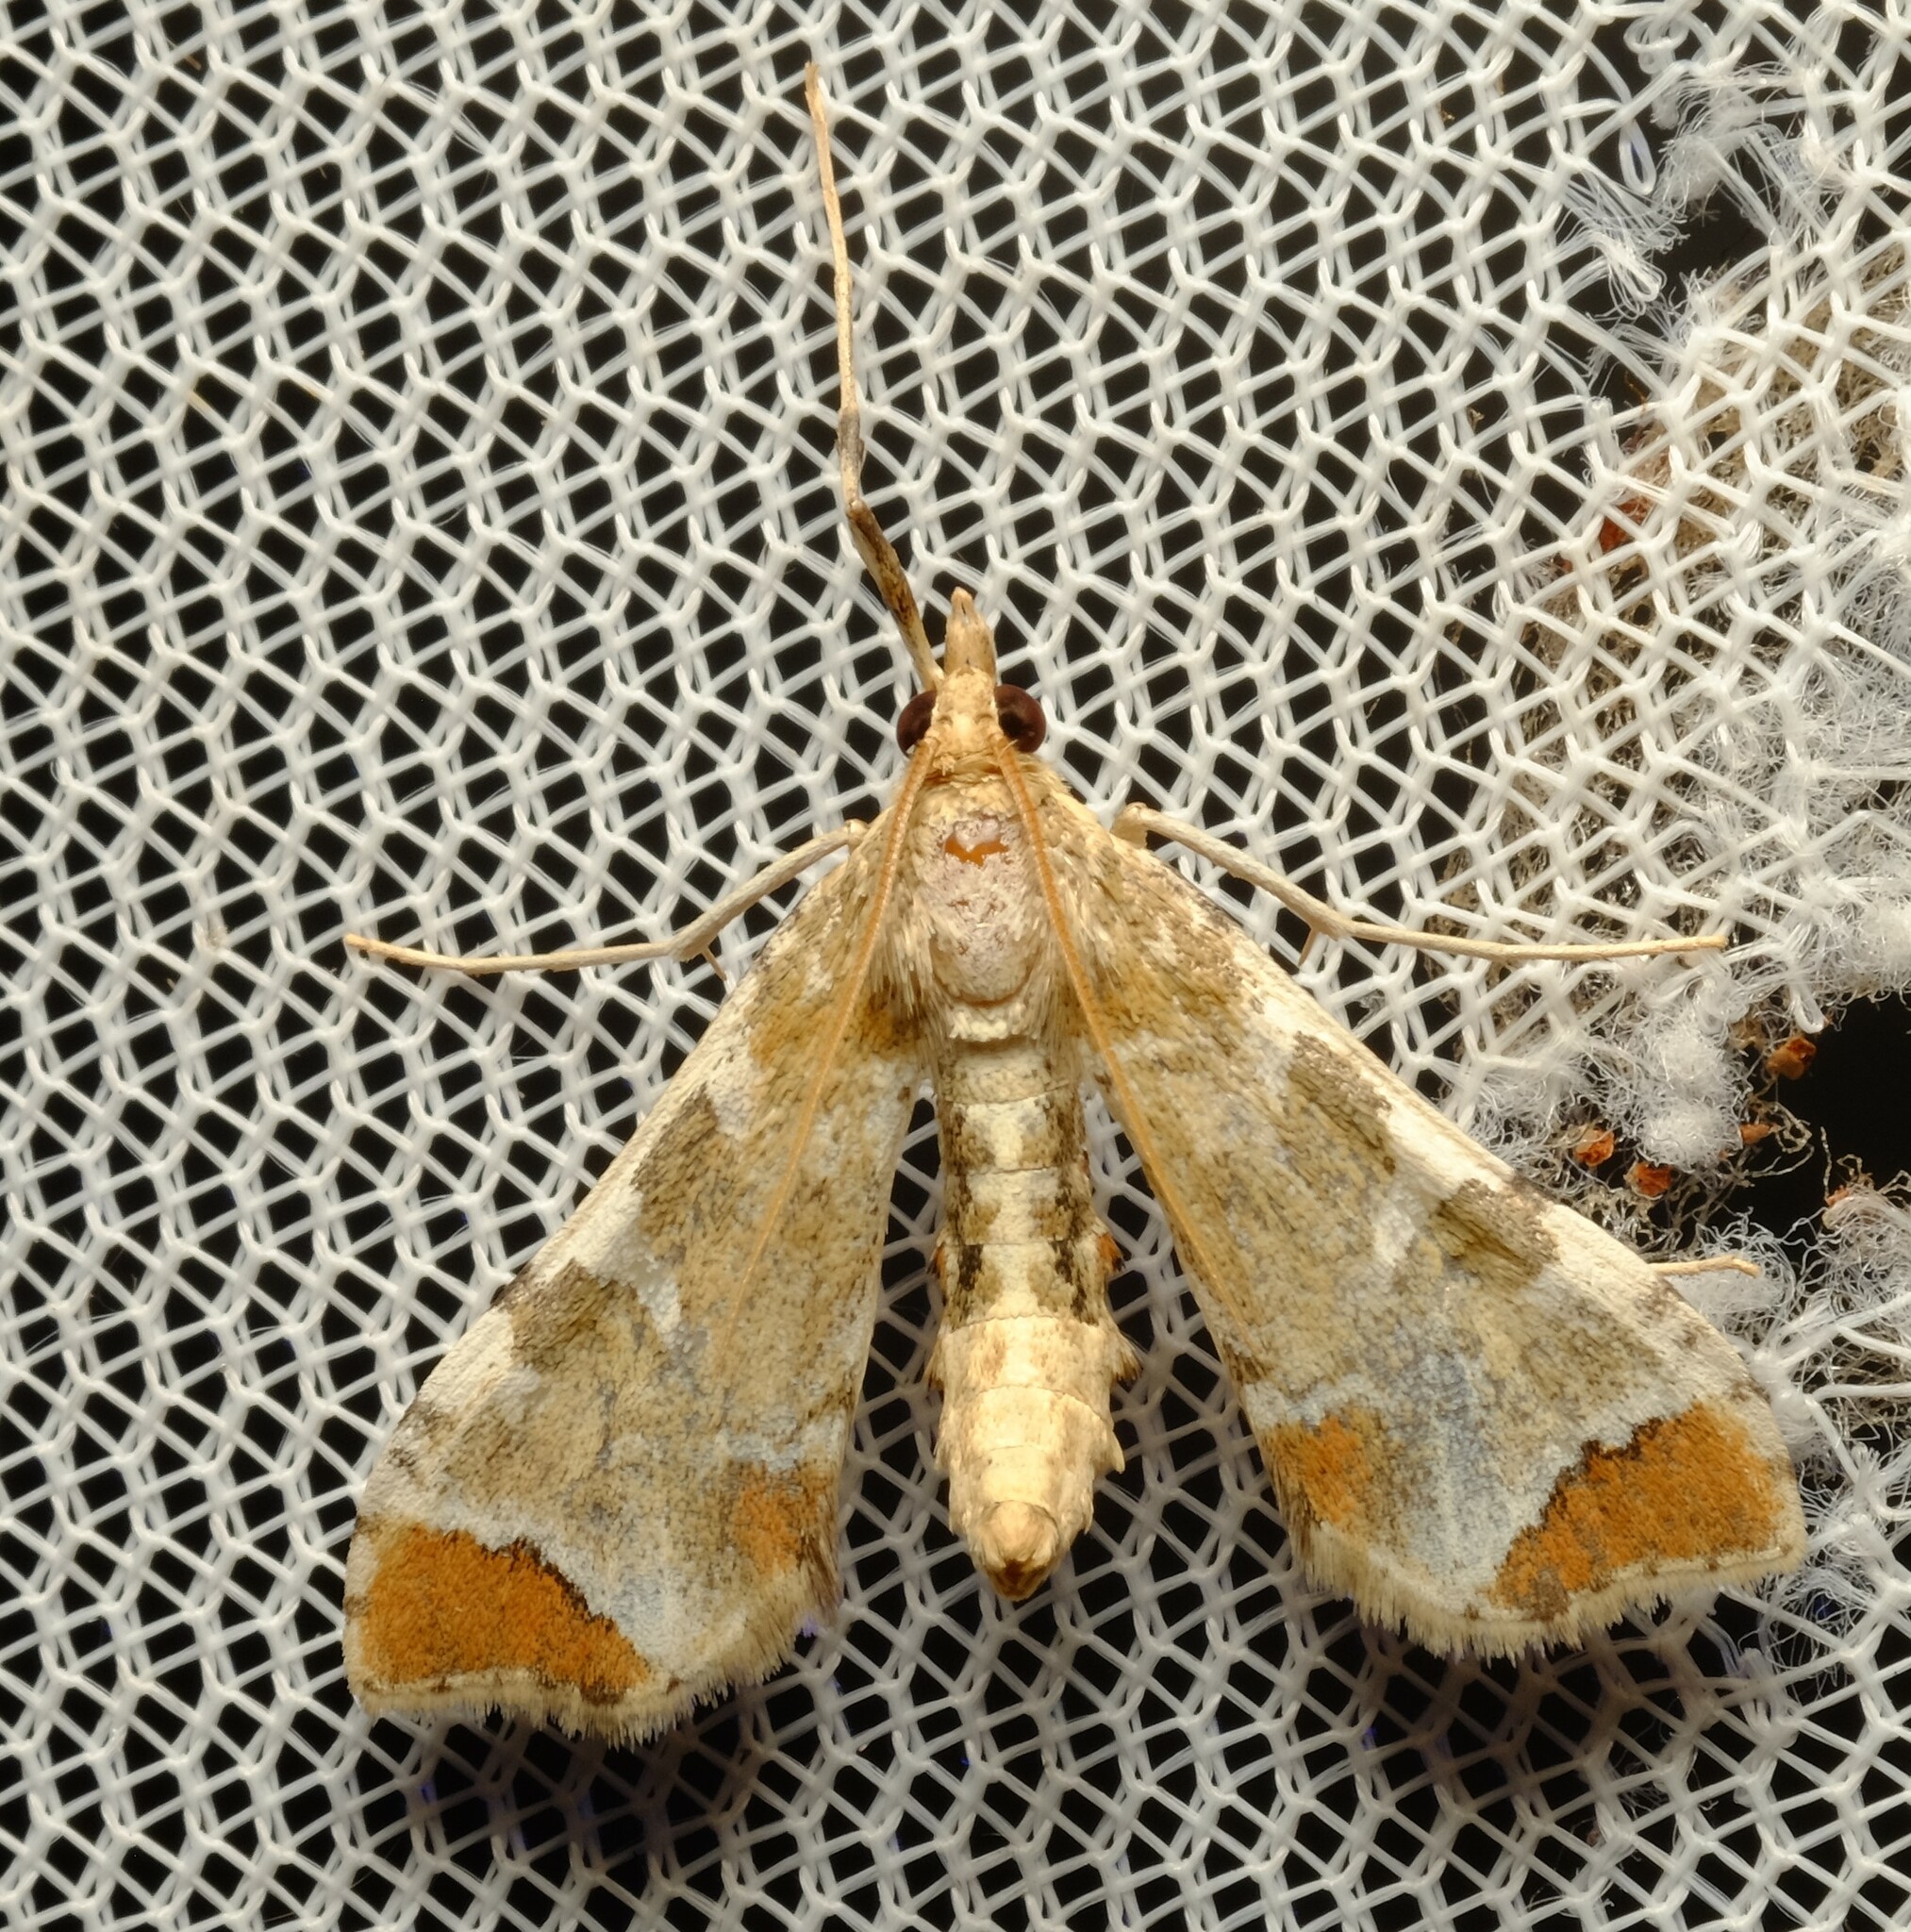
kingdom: Animalia
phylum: Arthropoda
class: Insecta
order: Lepidoptera
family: Crambidae
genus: Sceliodes
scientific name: Sceliodes cordalis
